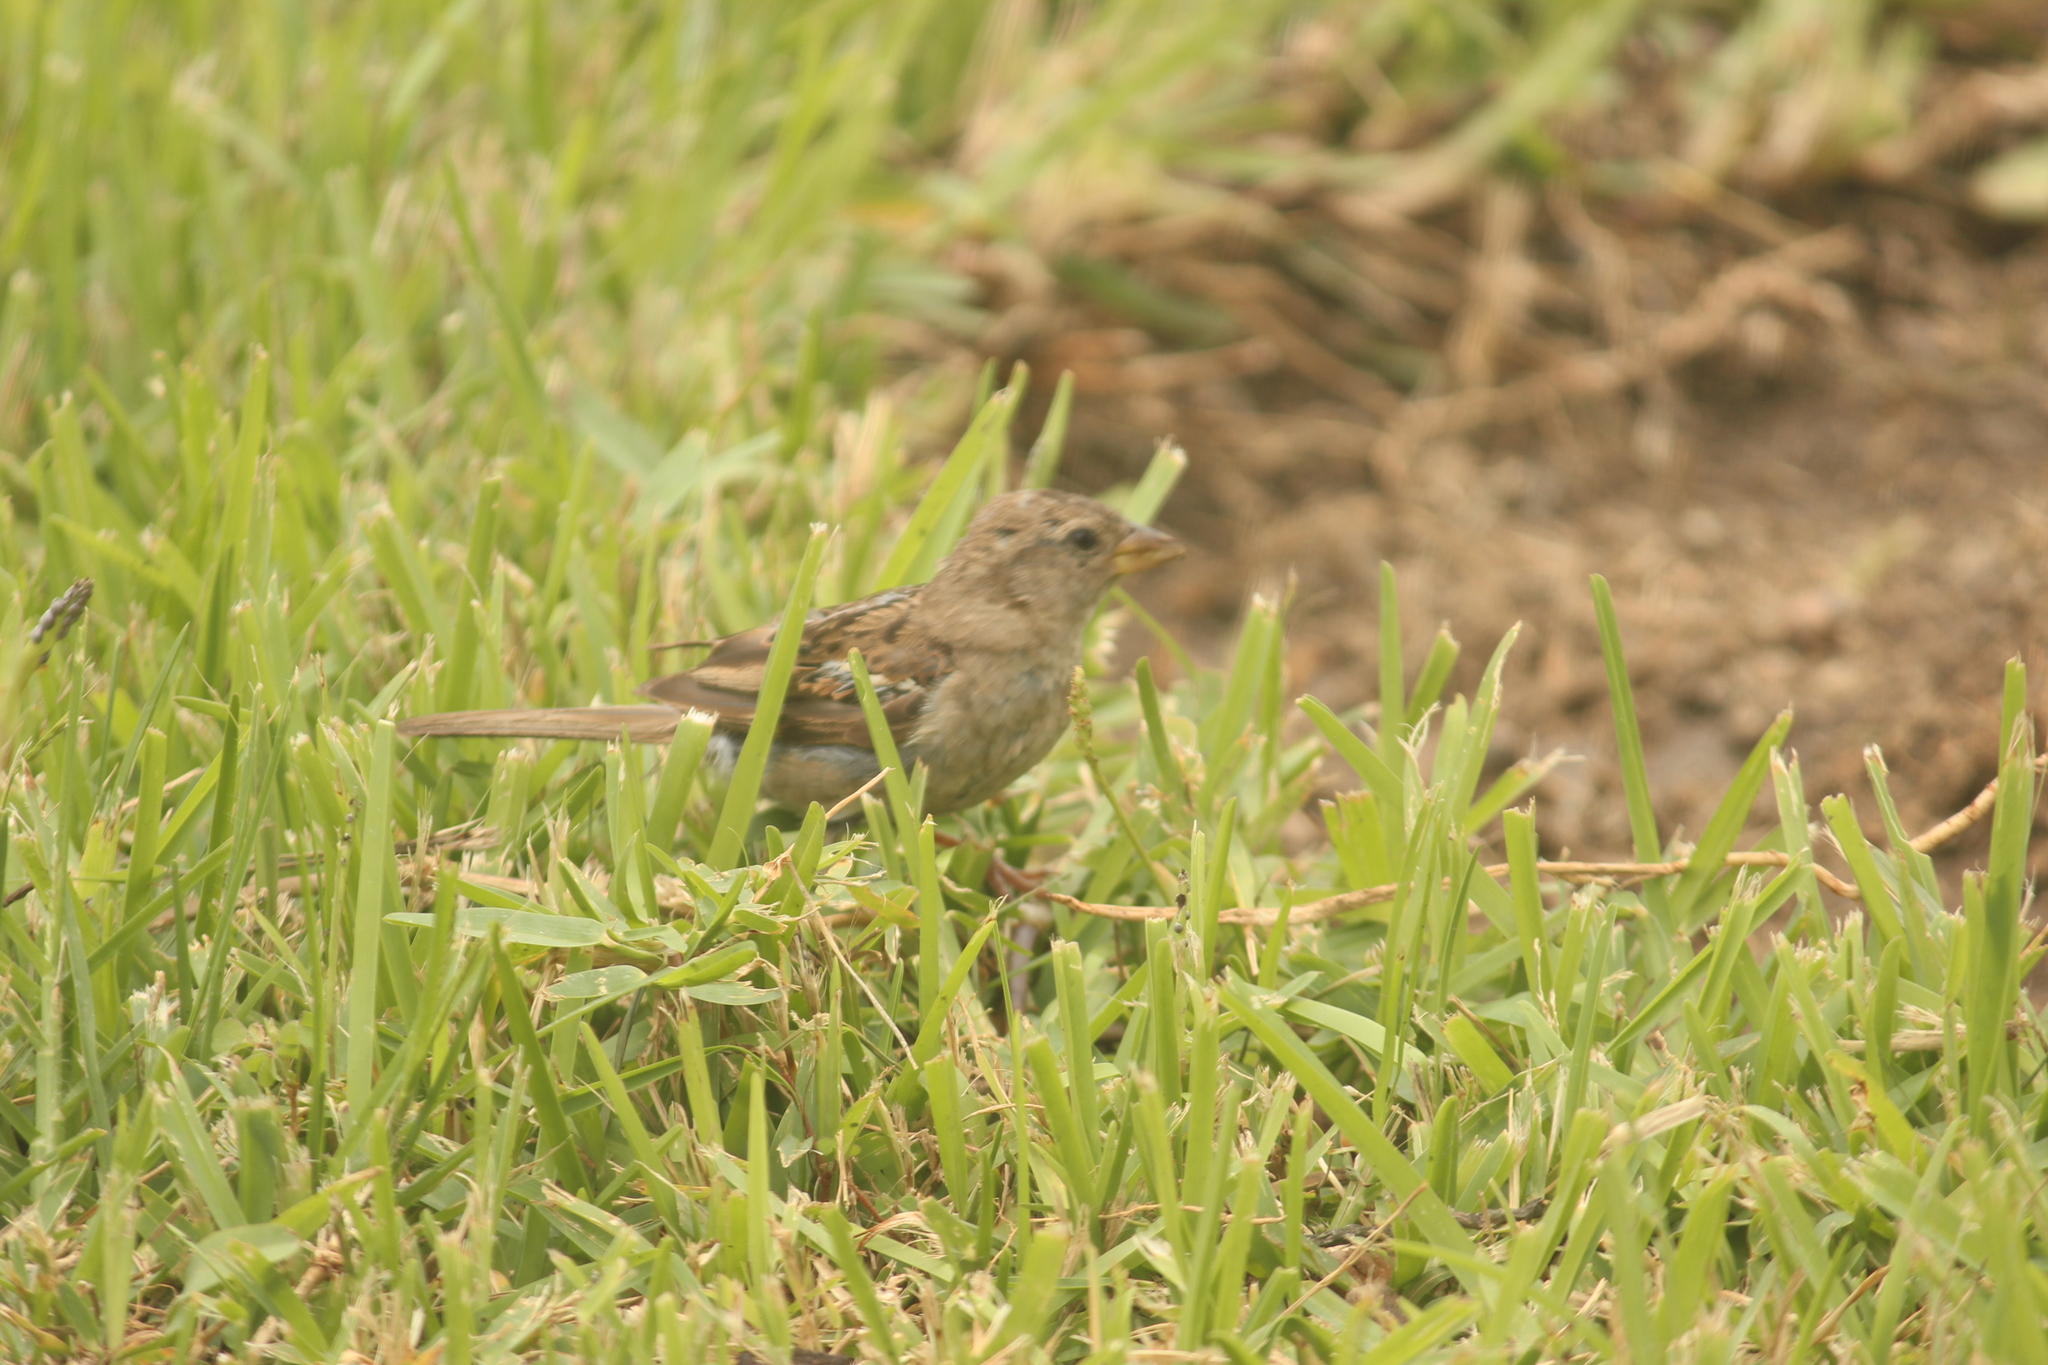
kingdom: Animalia
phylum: Chordata
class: Aves
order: Passeriformes
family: Passeridae
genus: Passer
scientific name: Passer domesticus
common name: House sparrow
